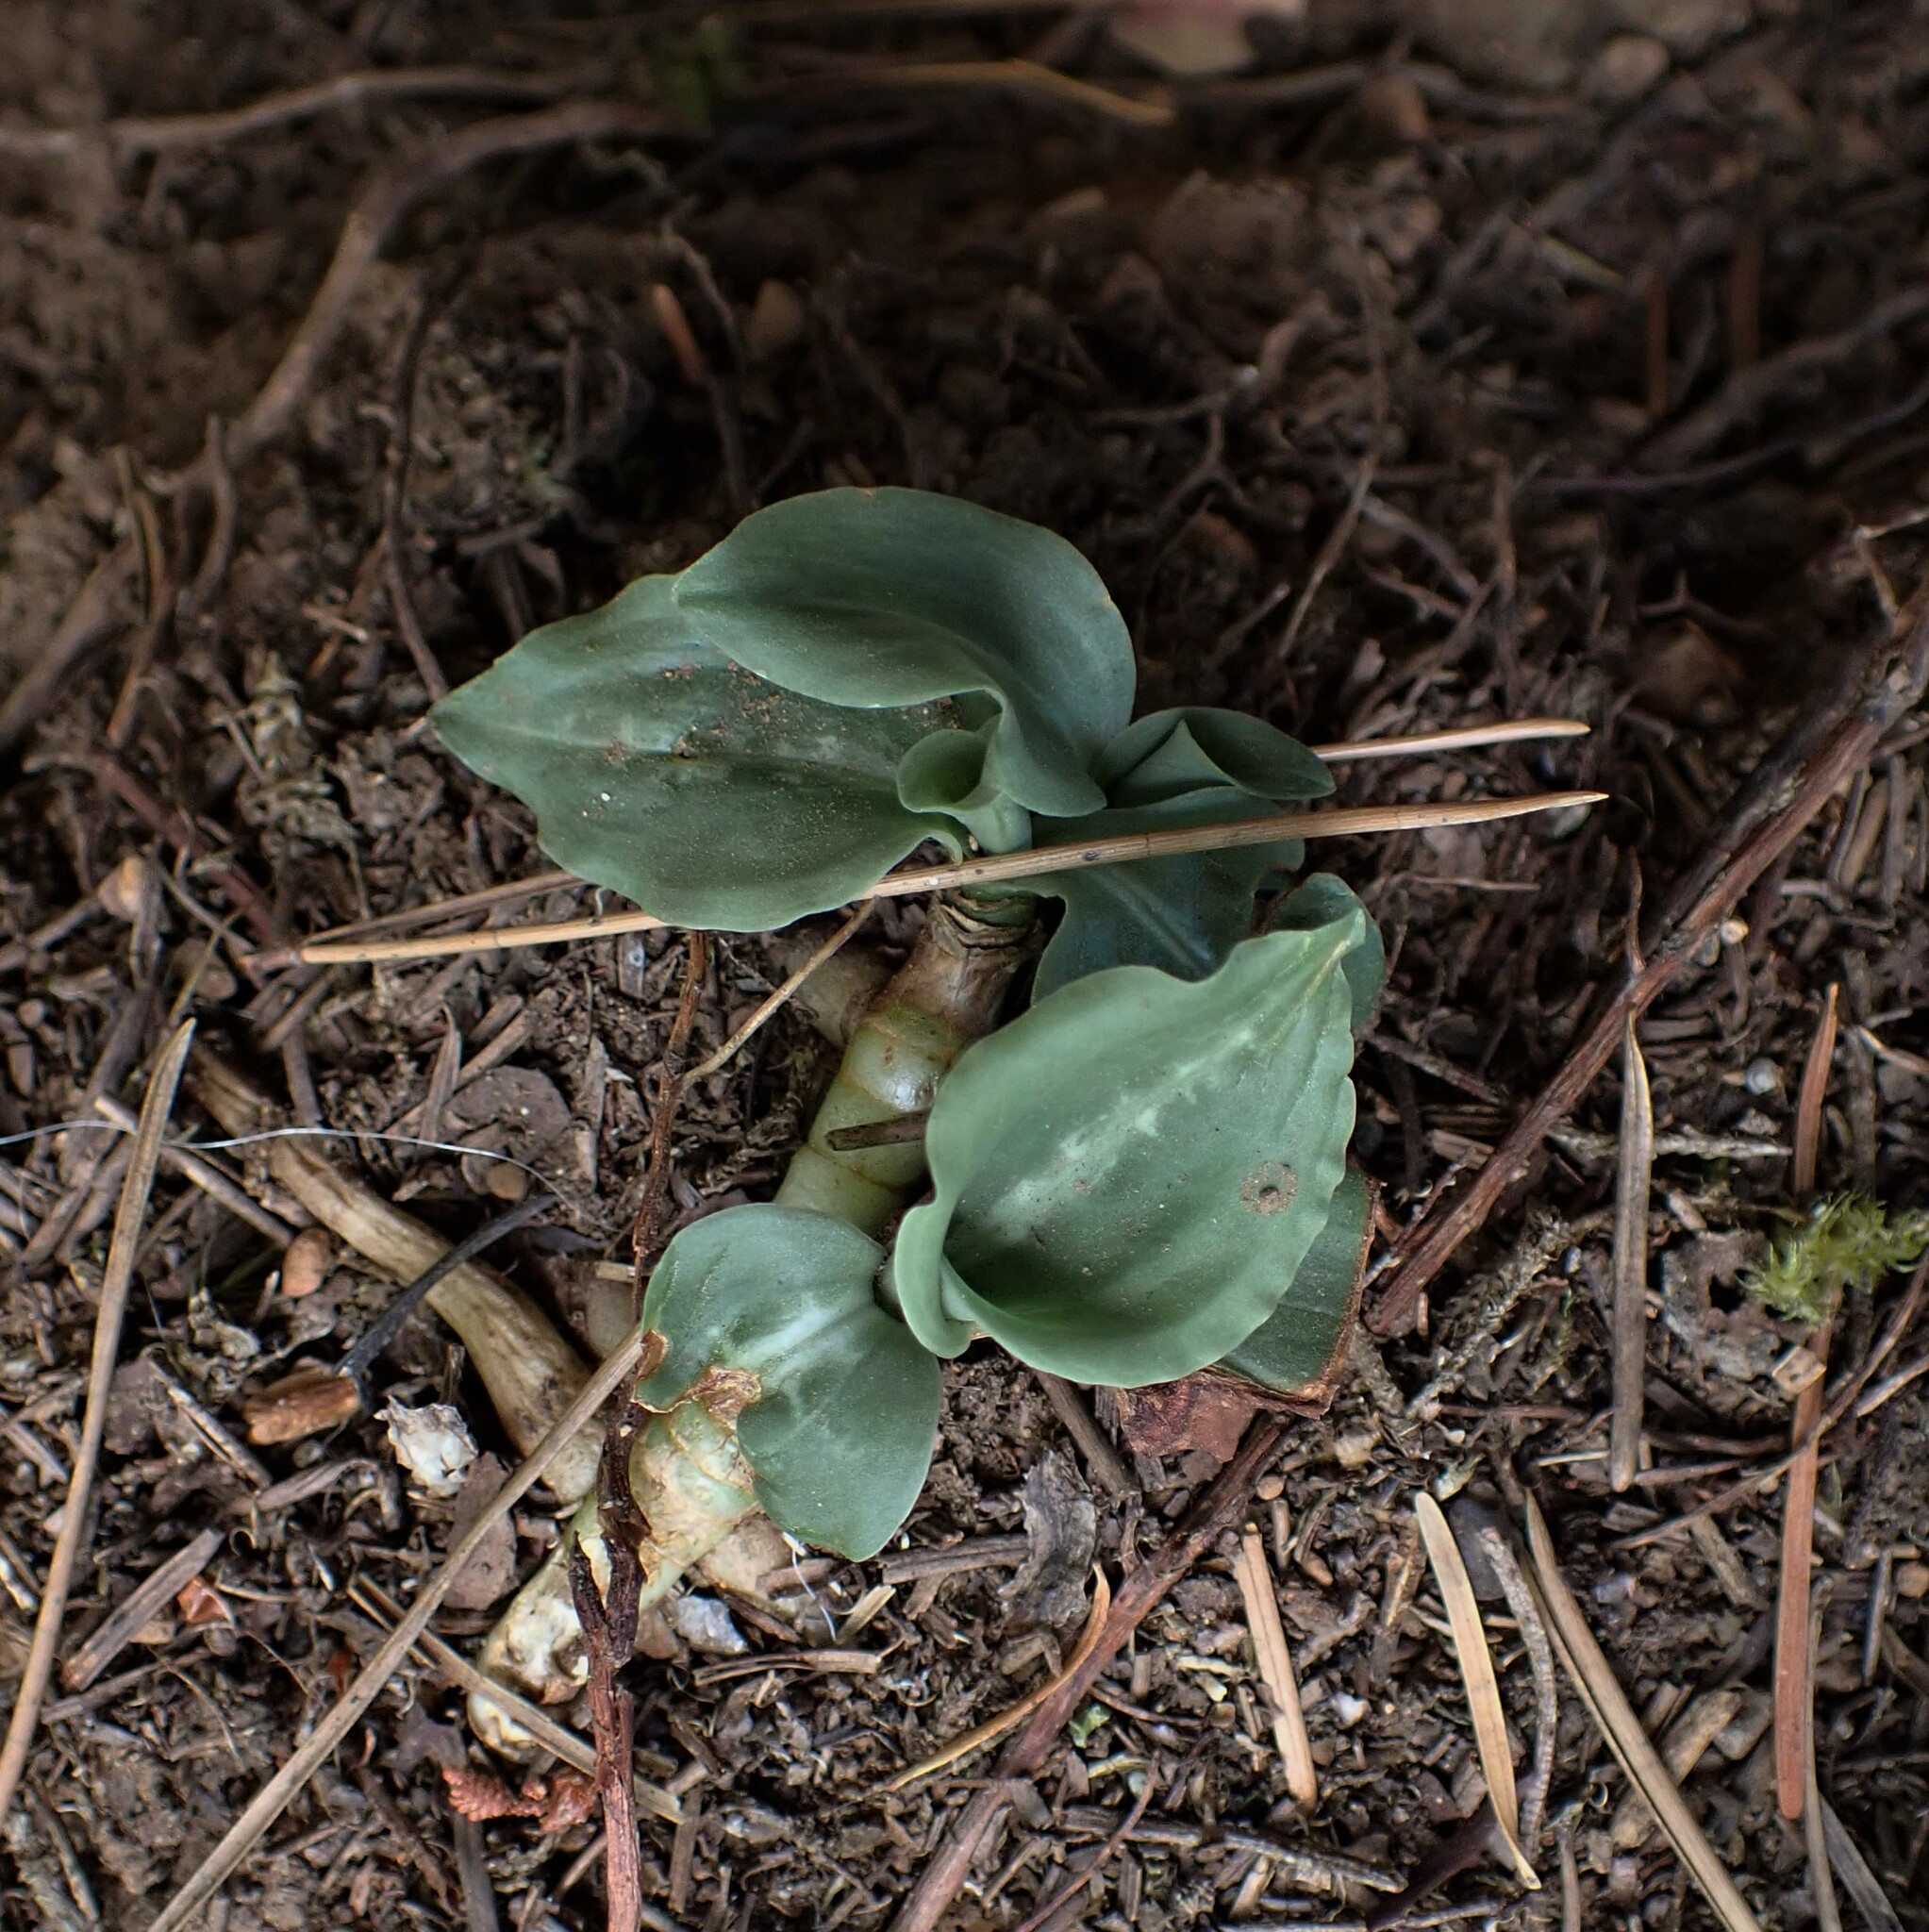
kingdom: Plantae
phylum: Tracheophyta
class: Liliopsida
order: Asparagales
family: Orchidaceae
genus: Goodyera
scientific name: Goodyera oblongifolia
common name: Giant rattlesnake-plantain
